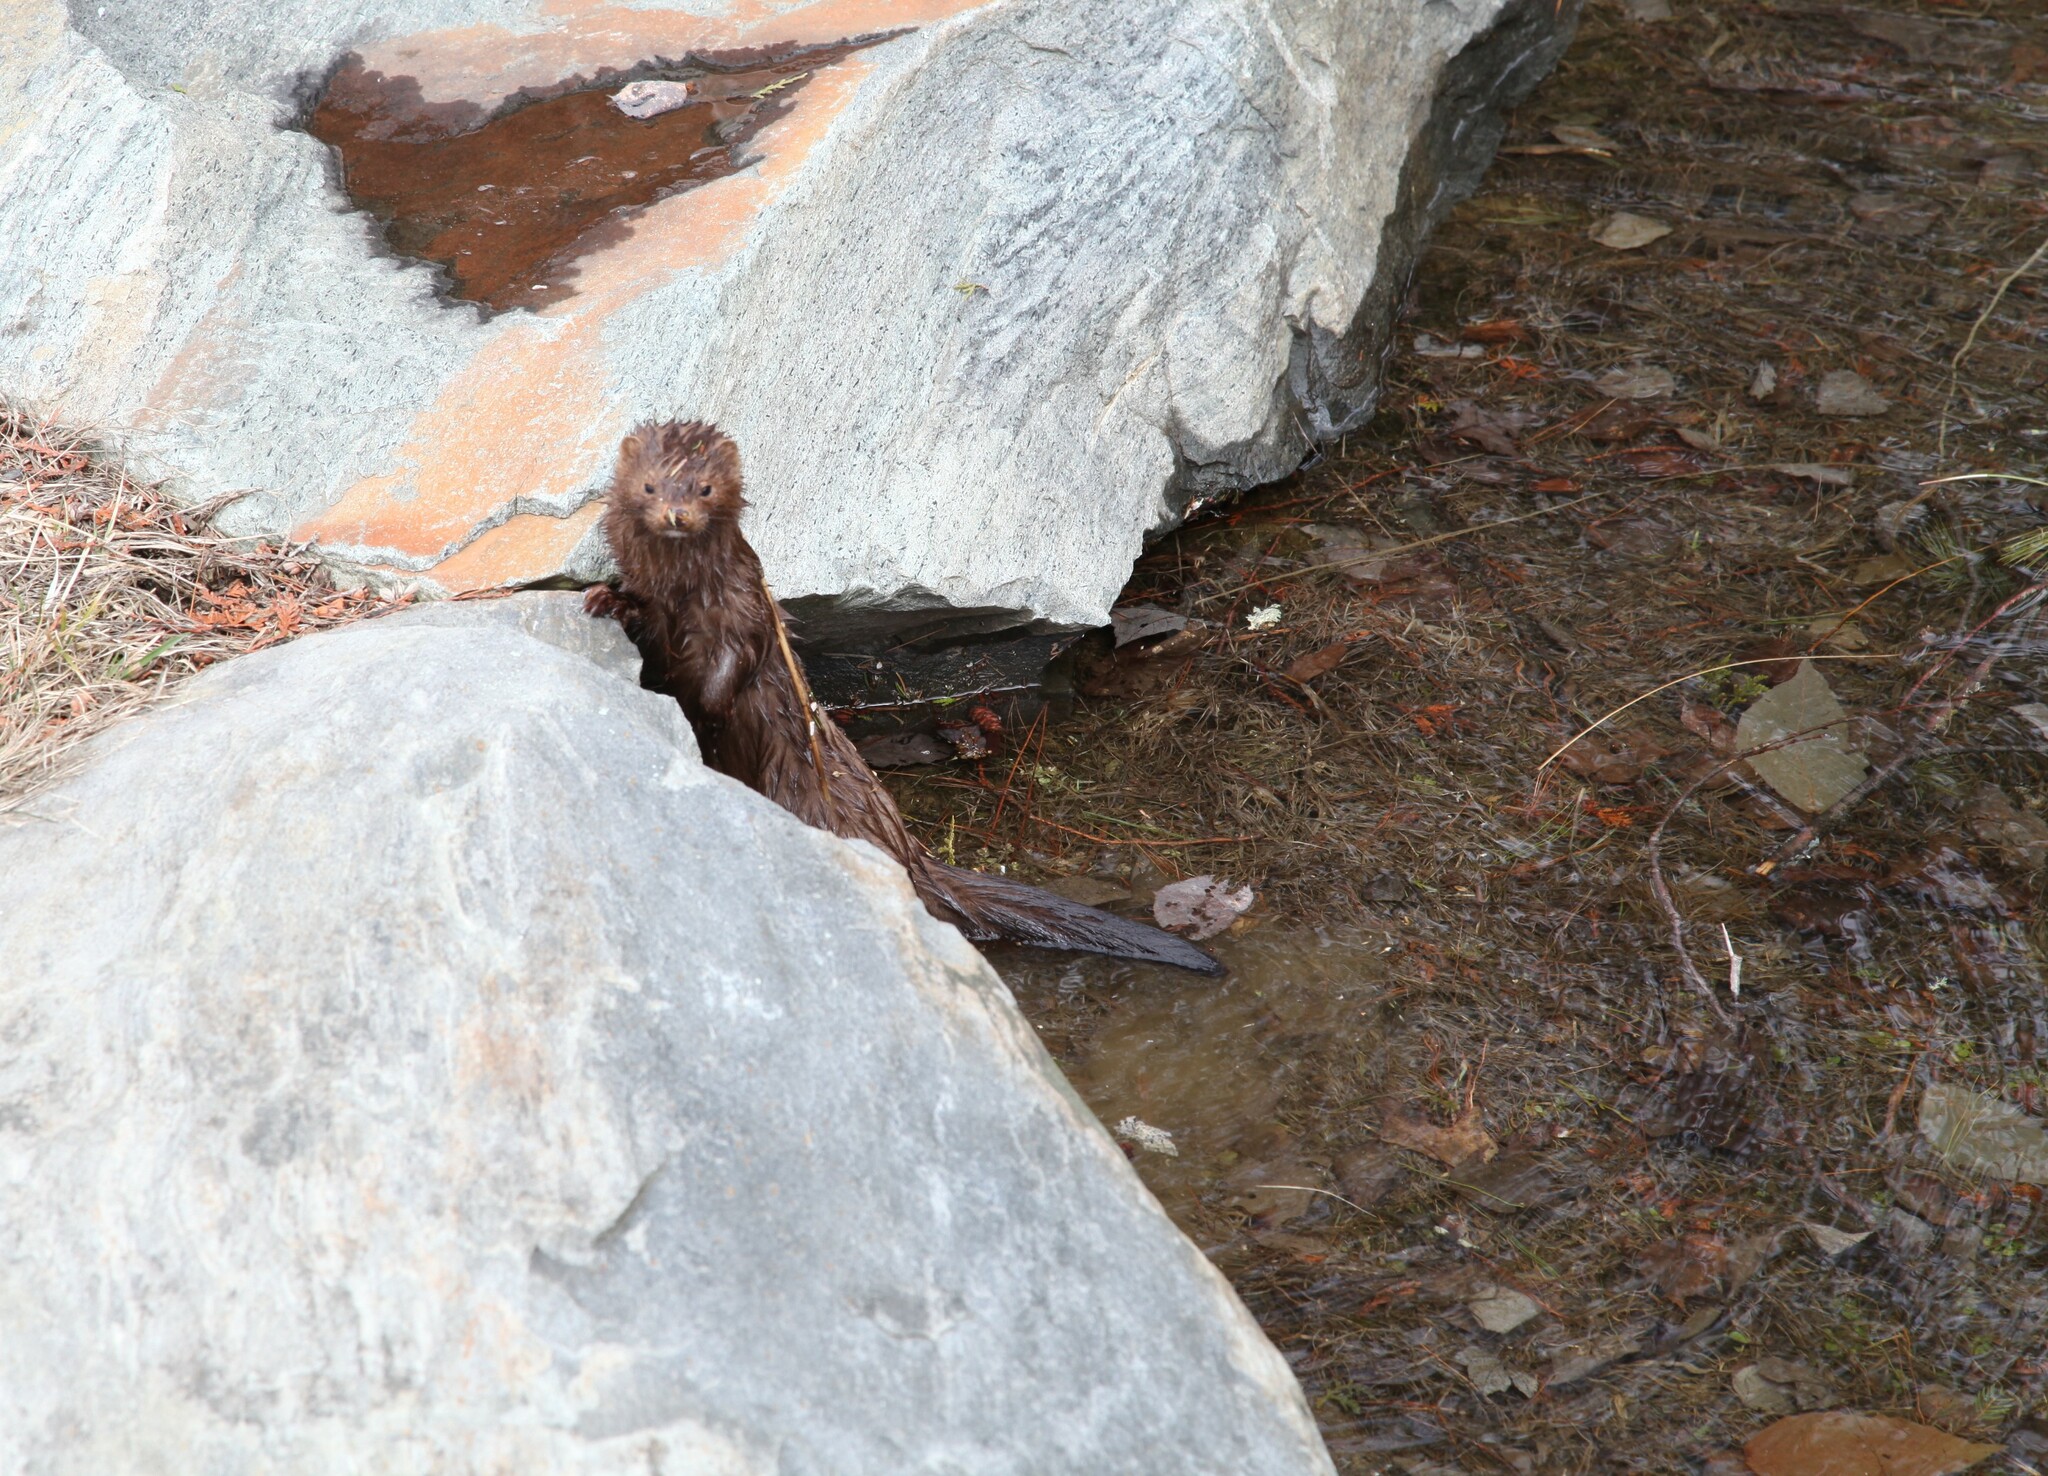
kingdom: Animalia
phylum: Chordata
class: Mammalia
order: Carnivora
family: Mustelidae
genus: Mustela
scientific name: Mustela
